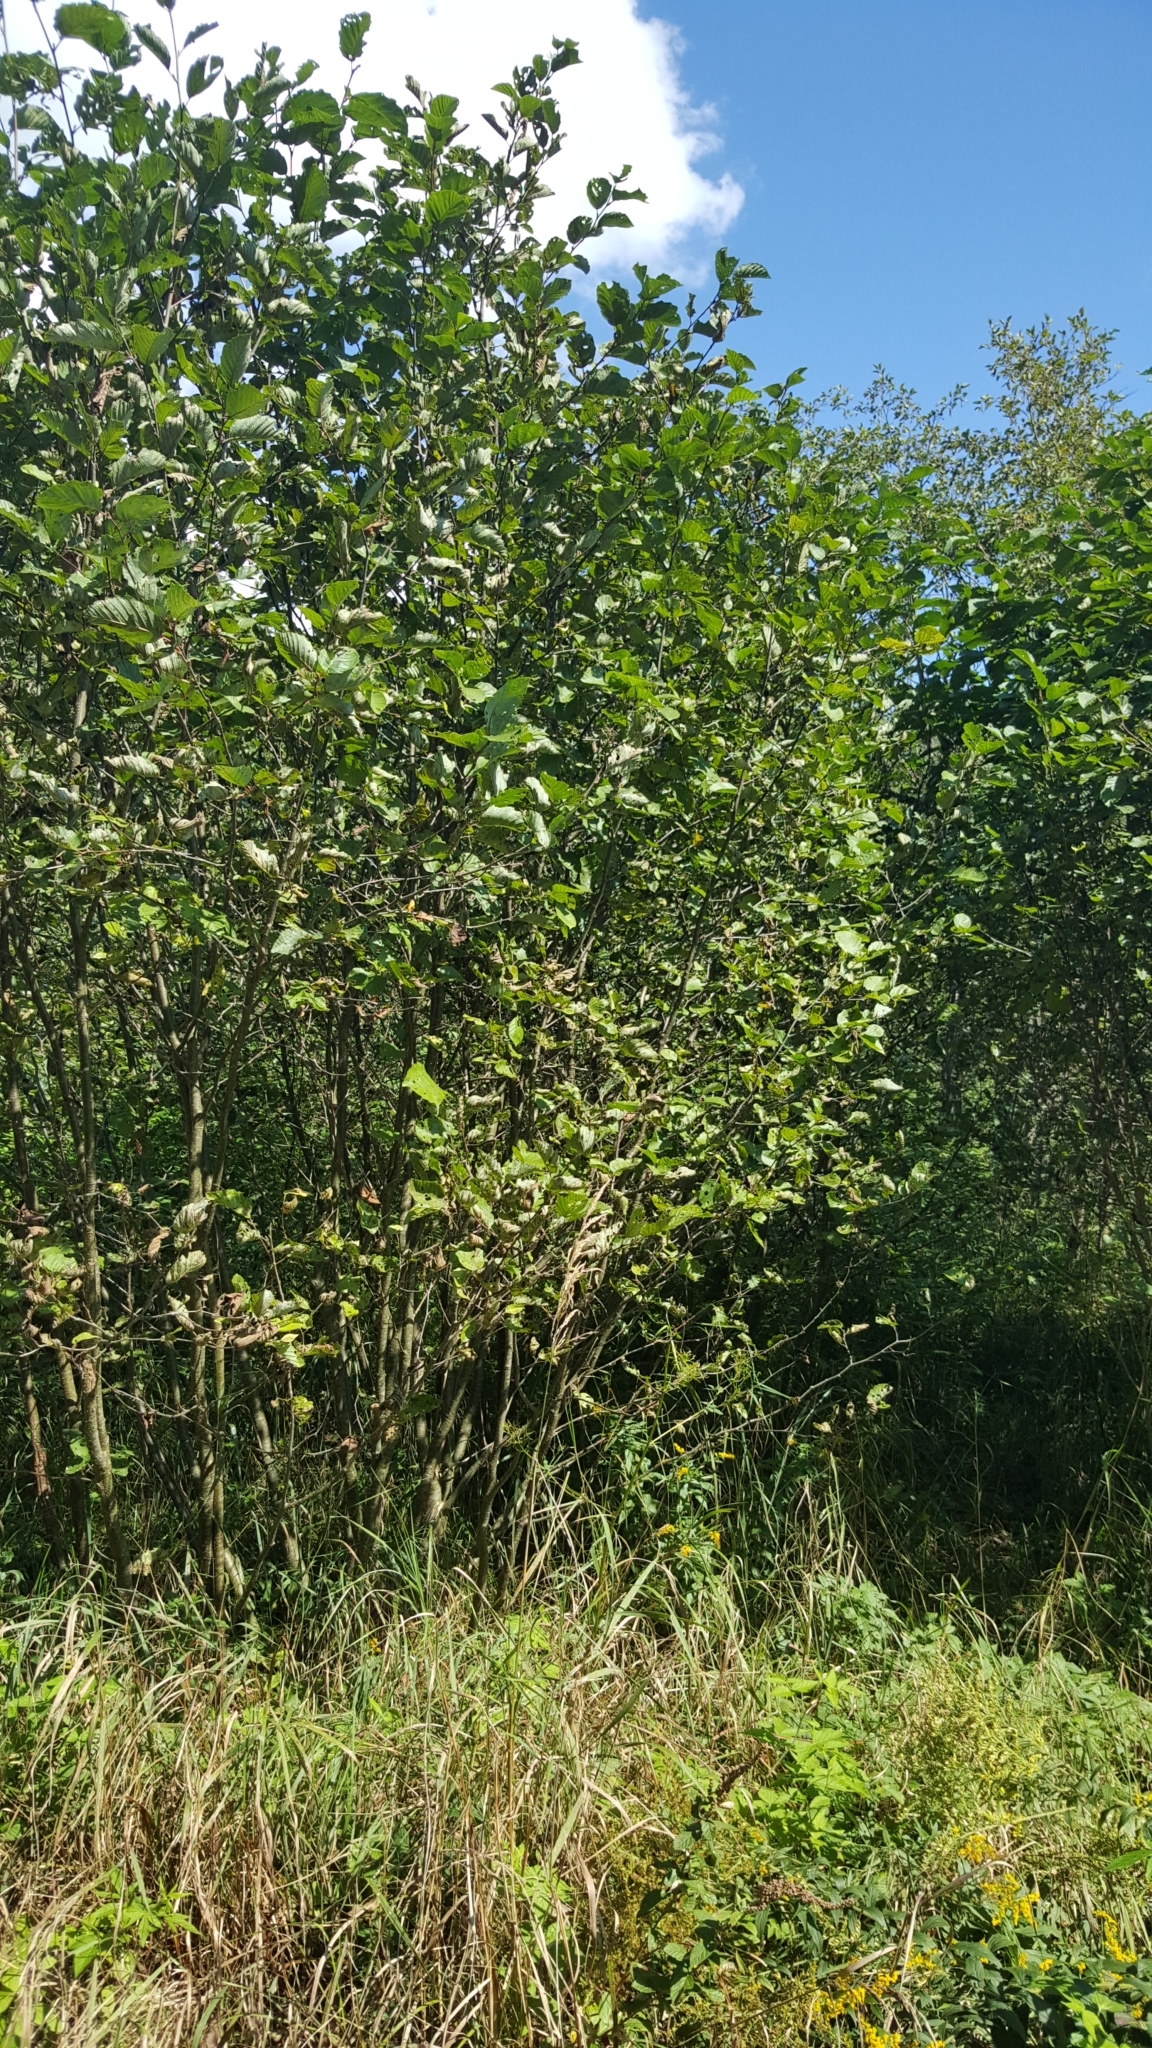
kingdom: Plantae
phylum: Tracheophyta
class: Magnoliopsida
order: Fagales
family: Betulaceae
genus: Alnus
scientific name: Alnus incana
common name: Grey alder
